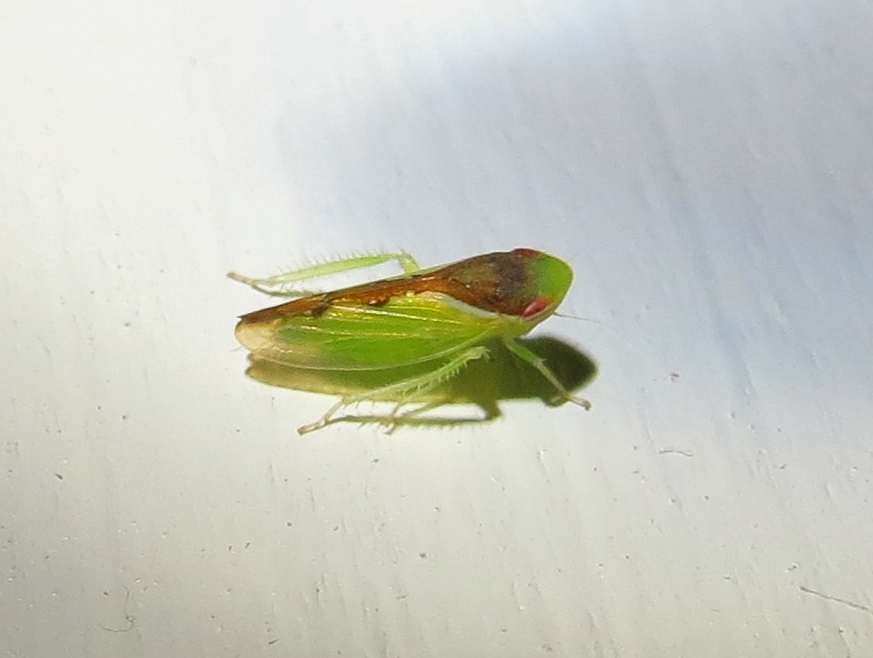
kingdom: Animalia
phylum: Arthropoda
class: Insecta
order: Hemiptera
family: Cicadellidae
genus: Omansobara ing
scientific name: Omansobara ing Omansobara palliolata
